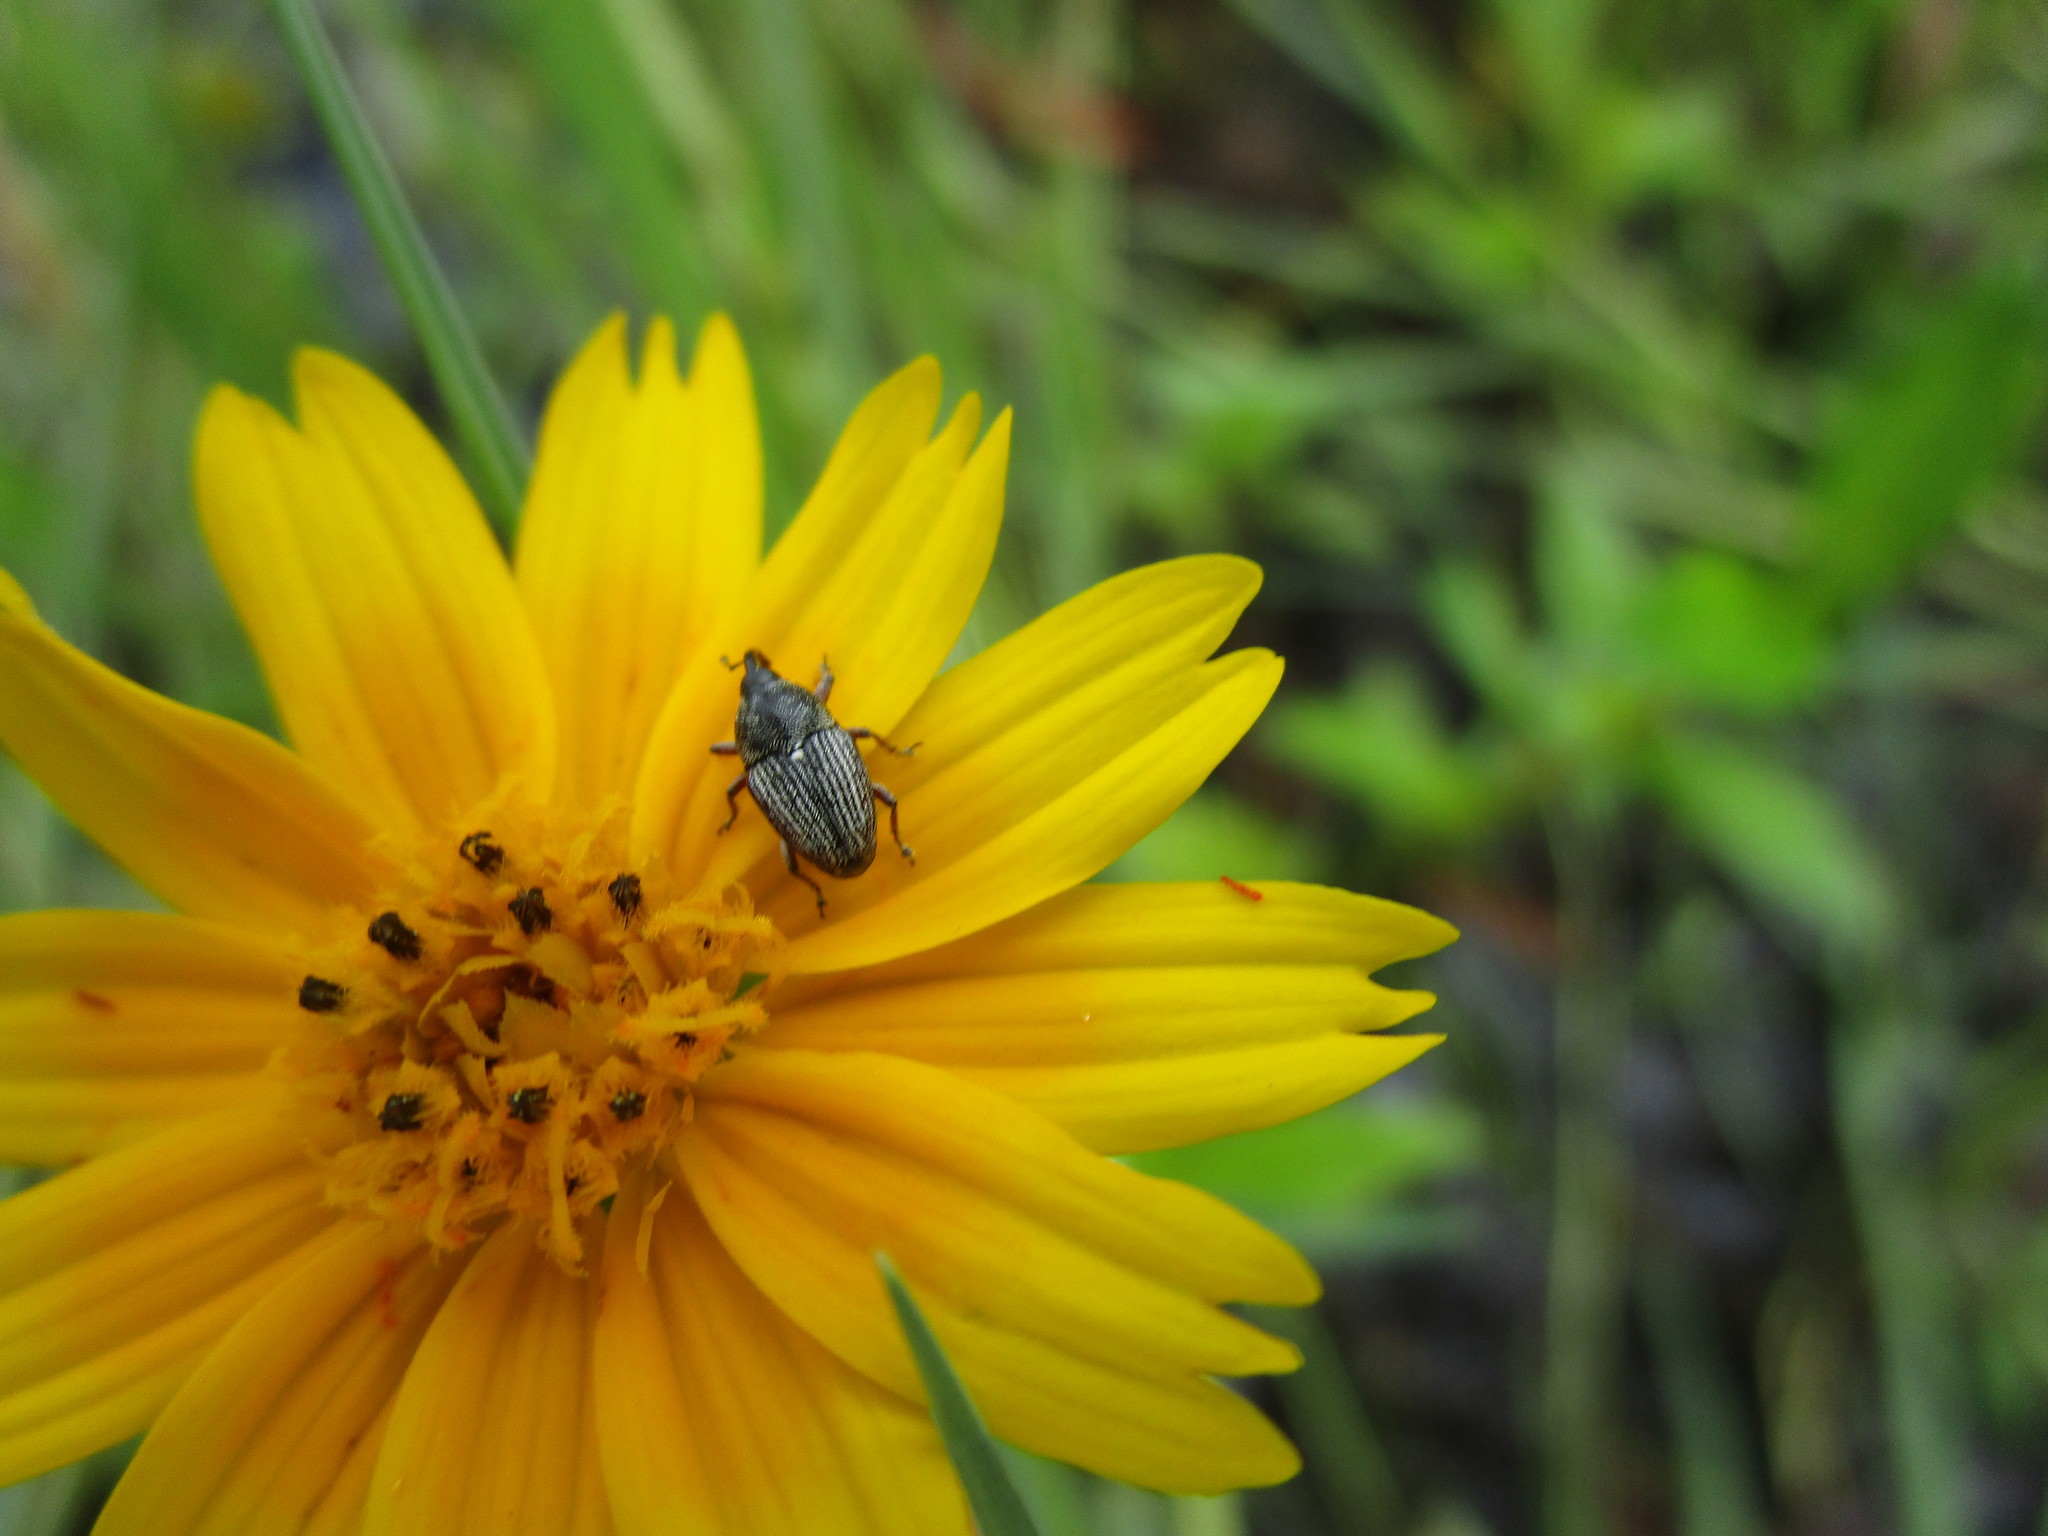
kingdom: Animalia
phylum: Arthropoda
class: Insecta
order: Coleoptera
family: Curculionidae
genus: Odontocorynus
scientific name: Odontocorynus larvatus
